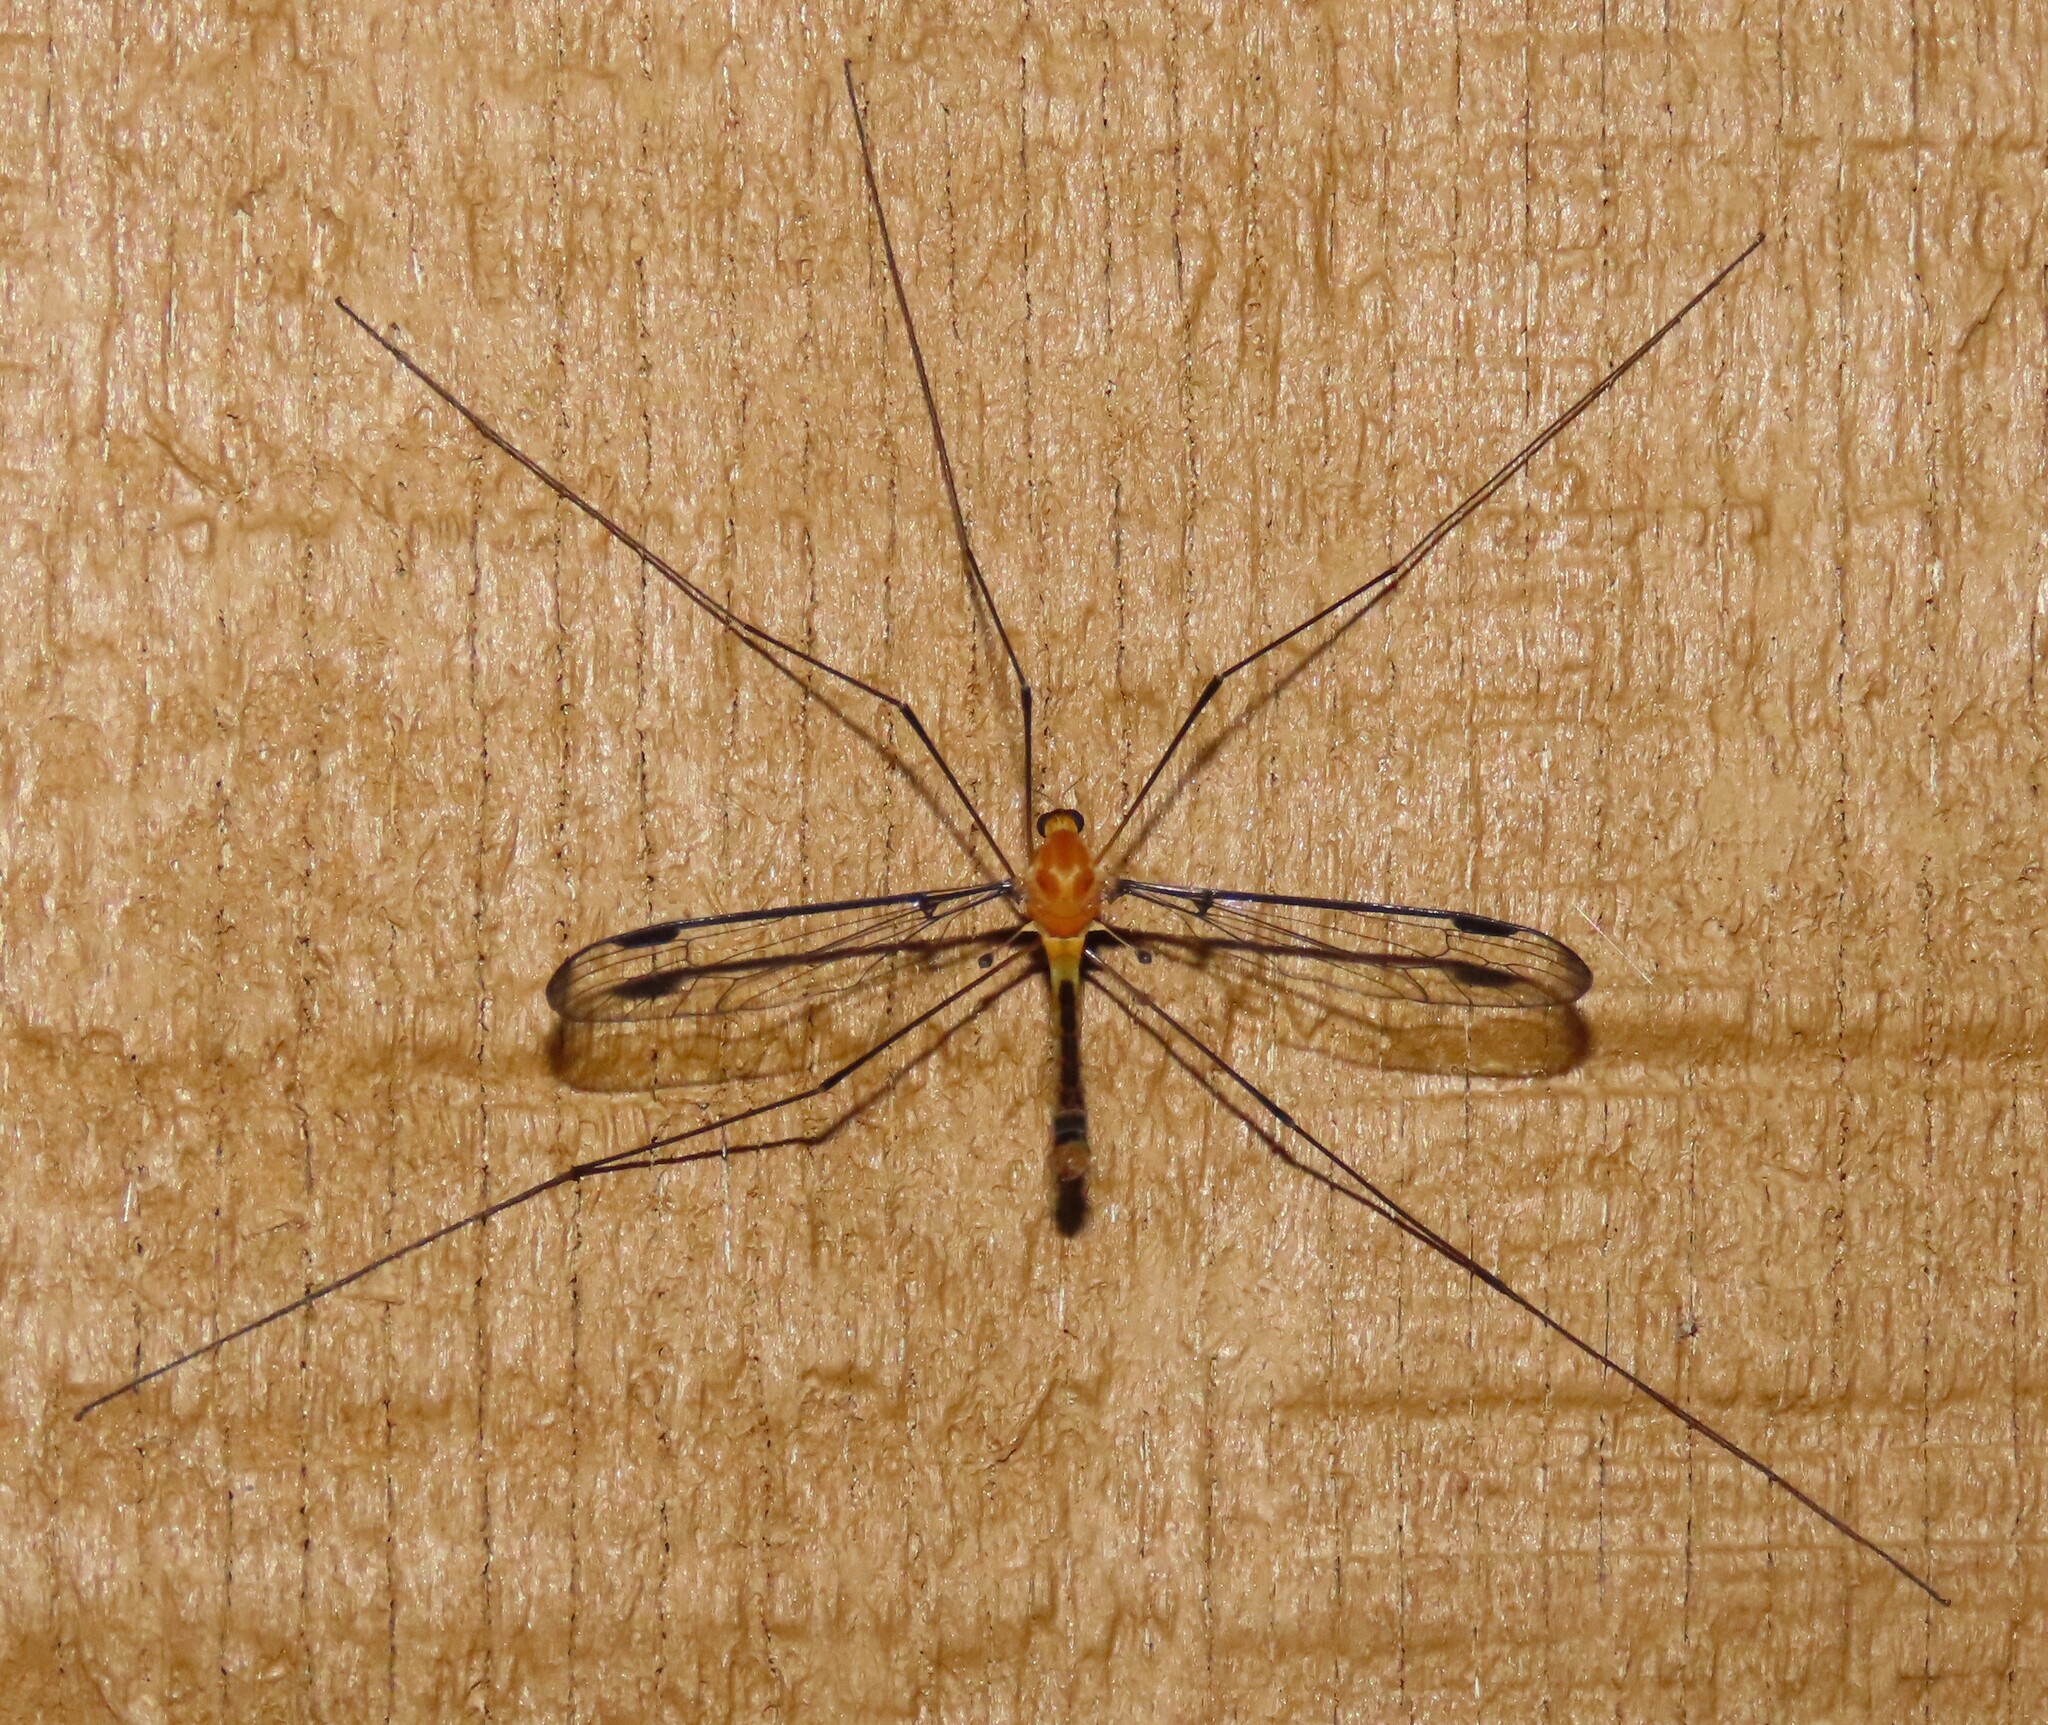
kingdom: Animalia
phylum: Arthropoda
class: Insecta
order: Diptera
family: Tipulidae
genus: Aurotipula
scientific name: Aurotipula
